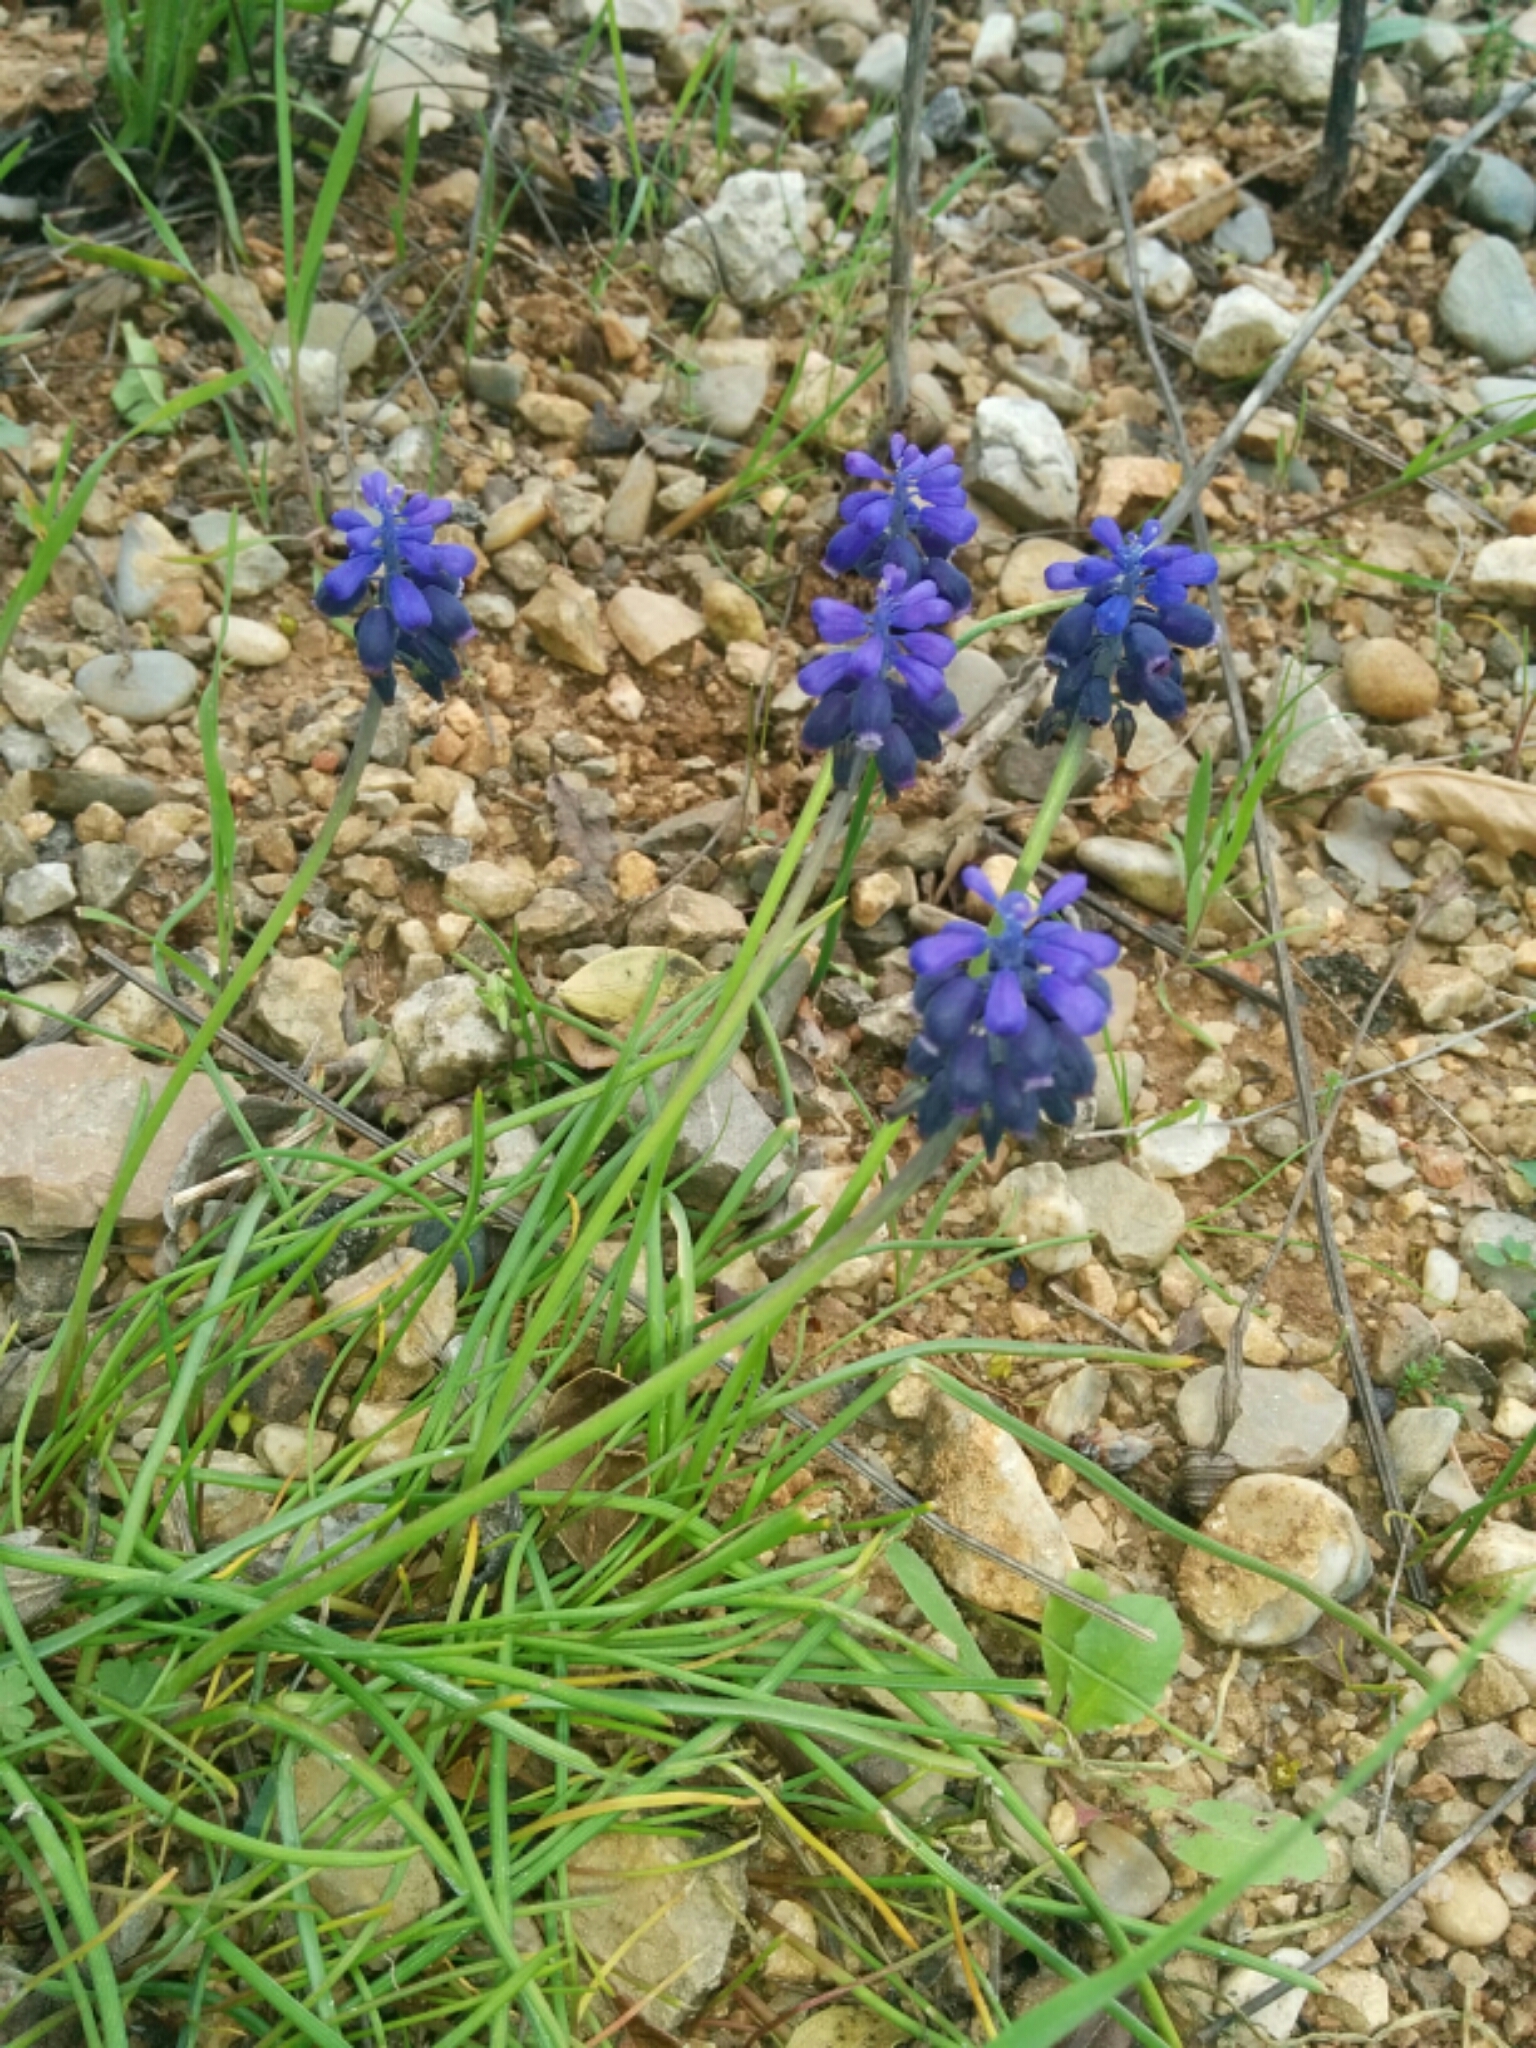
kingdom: Plantae
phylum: Tracheophyta
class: Liliopsida
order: Asparagales
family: Asparagaceae
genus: Muscari
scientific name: Muscari neglectum
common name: Grape-hyacinth
